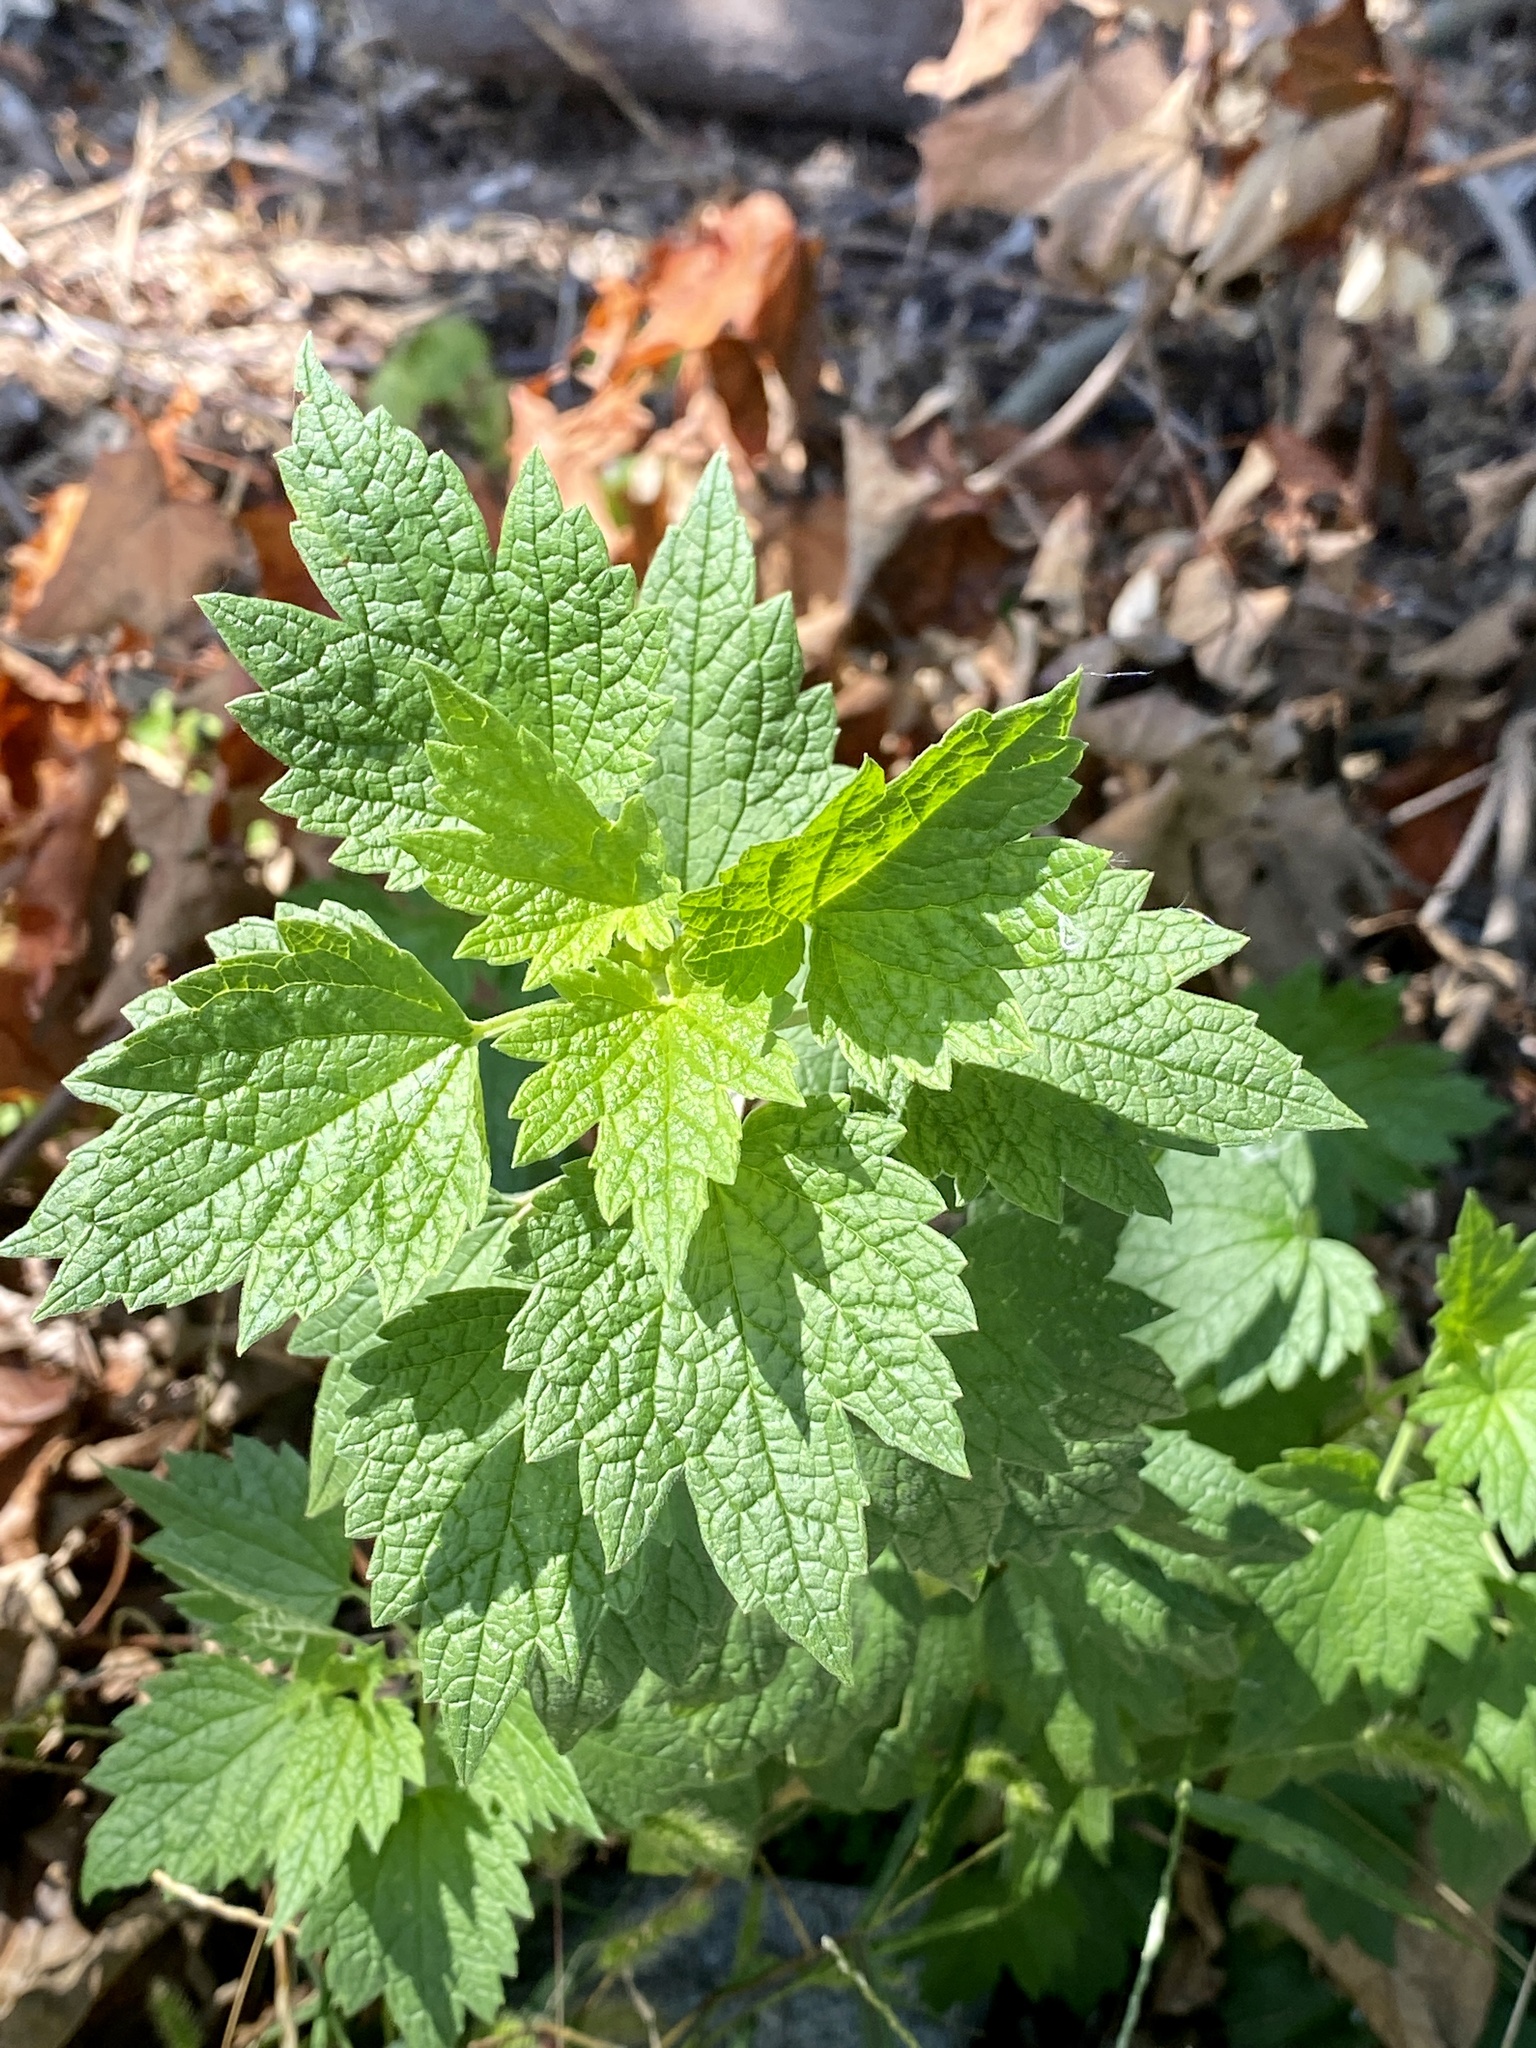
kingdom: Plantae
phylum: Tracheophyta
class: Magnoliopsida
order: Lamiales
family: Lamiaceae
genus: Leonurus
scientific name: Leonurus cardiaca
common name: Motherwort
